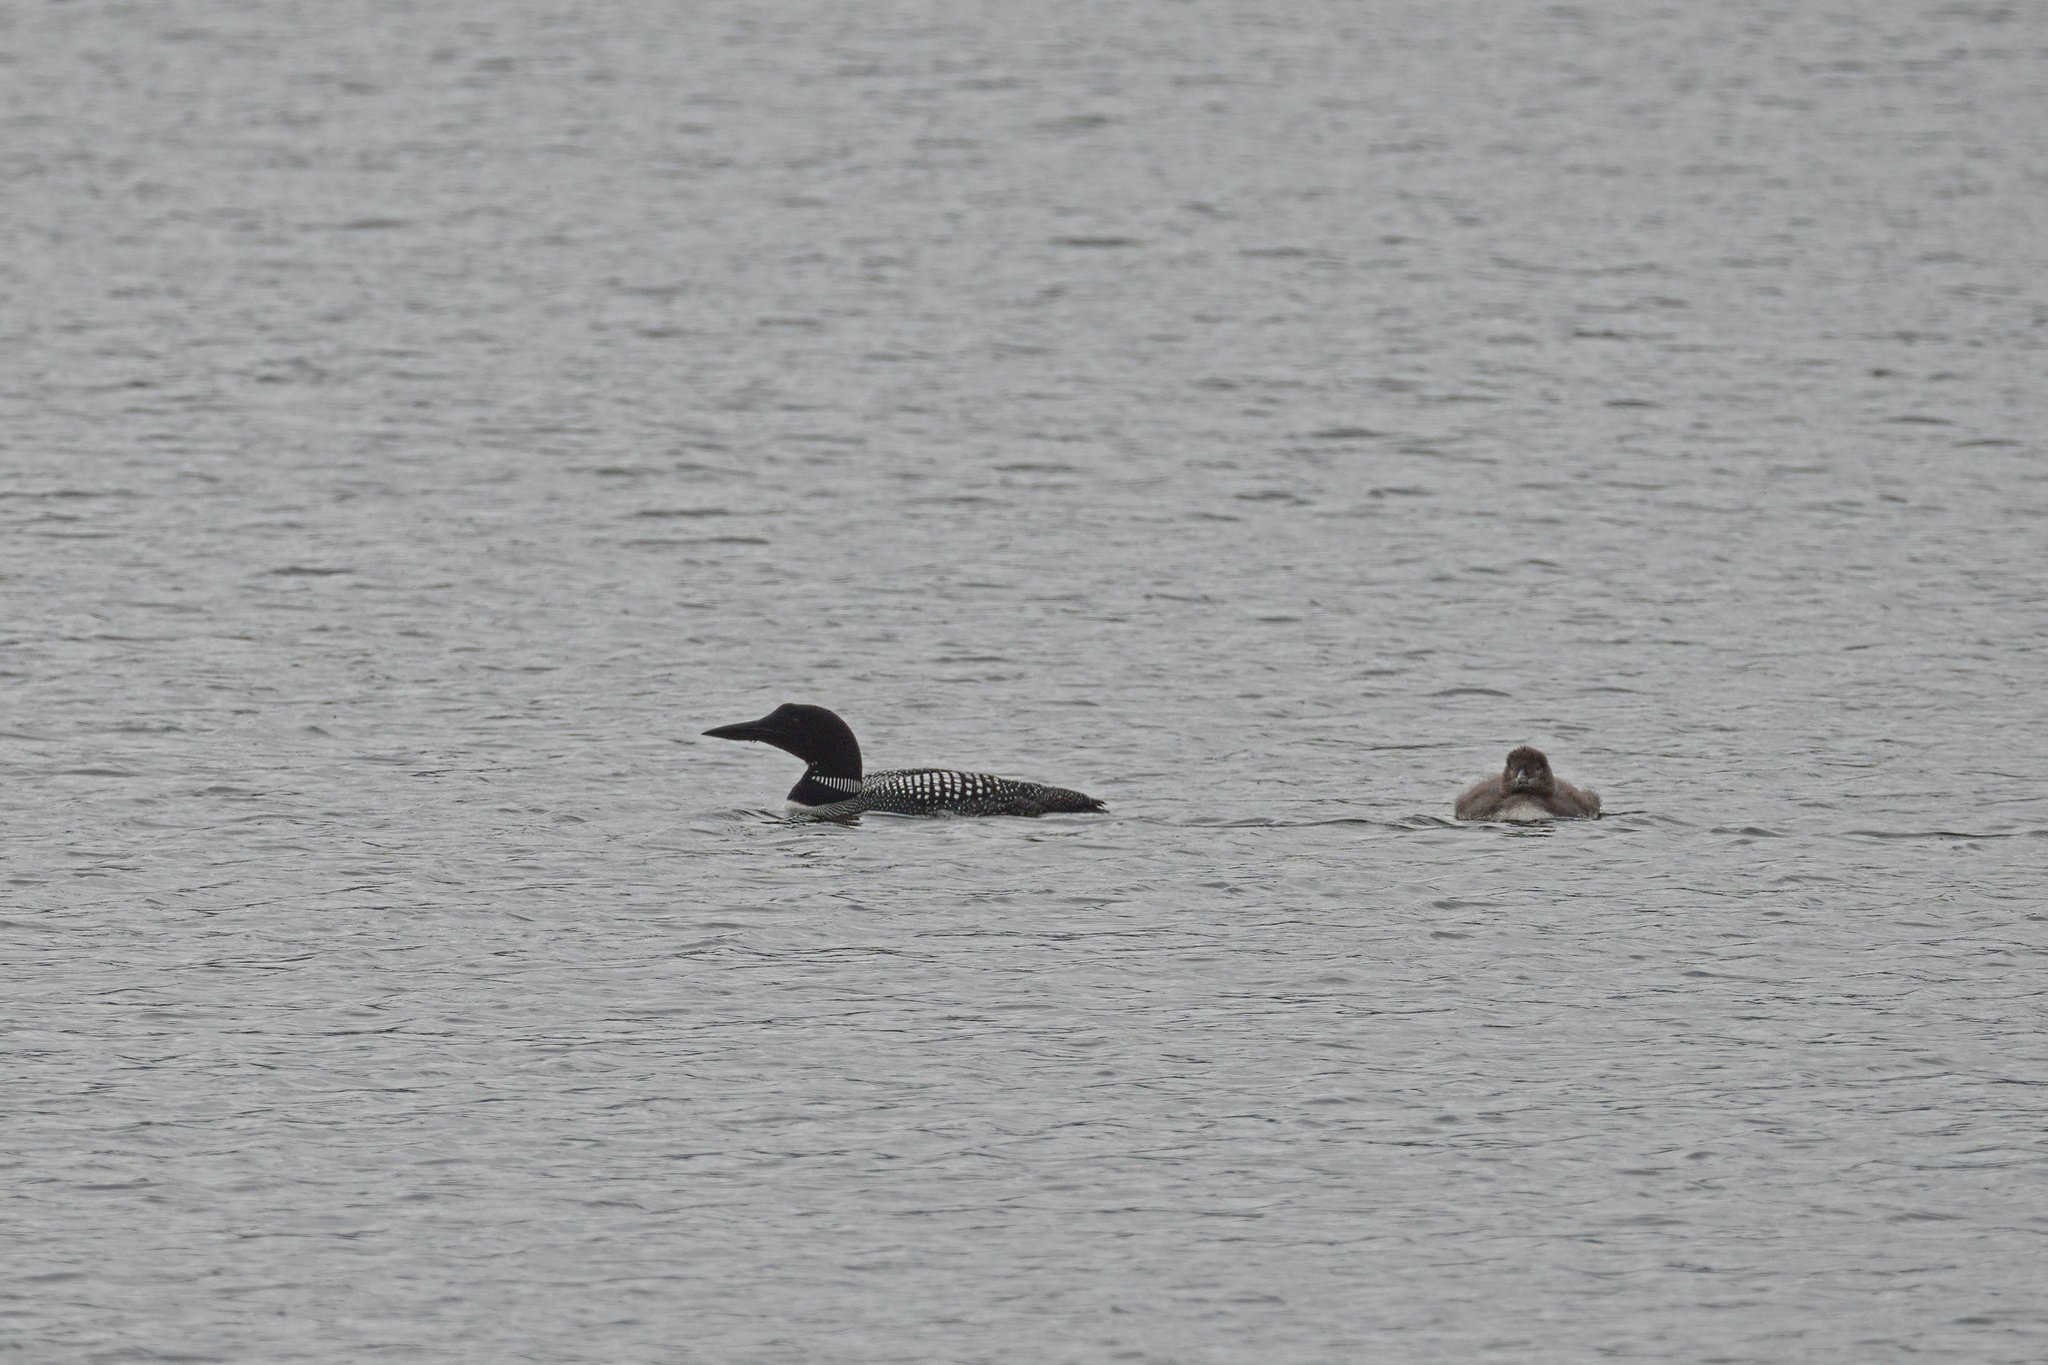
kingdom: Animalia
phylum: Chordata
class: Aves
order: Gaviiformes
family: Gaviidae
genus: Gavia
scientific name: Gavia immer
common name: Common loon
